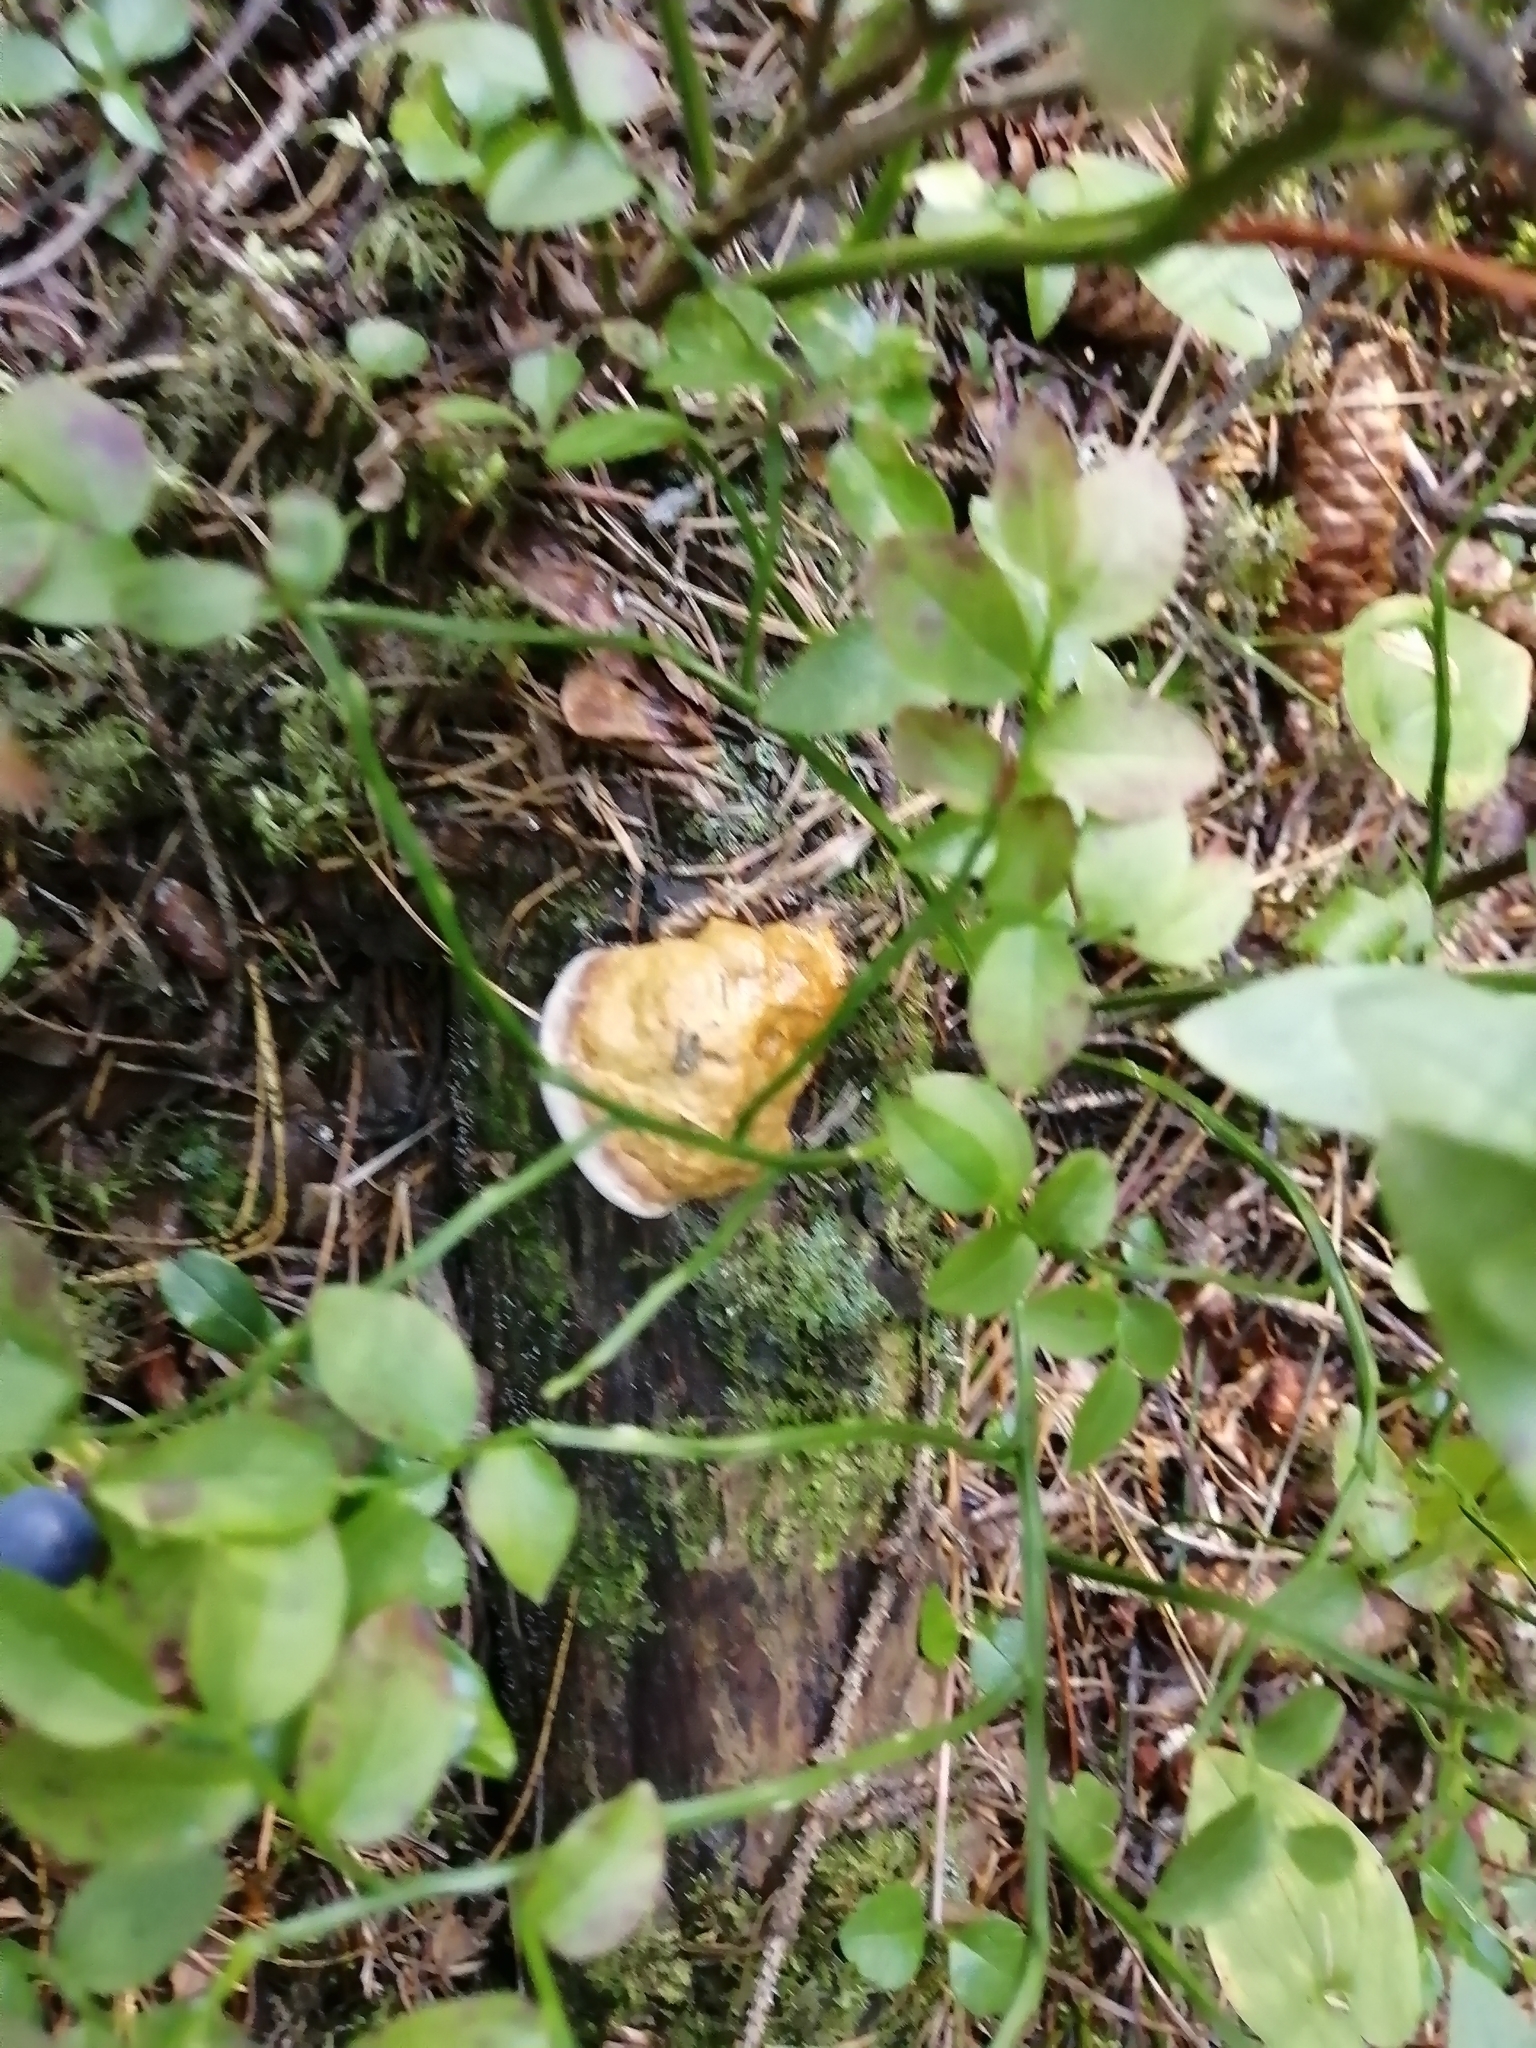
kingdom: Fungi
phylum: Basidiomycota
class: Agaricomycetes
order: Polyporales
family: Fomitopsidaceae
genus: Fomitopsis
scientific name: Fomitopsis pinicola
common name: Red-belted bracket
